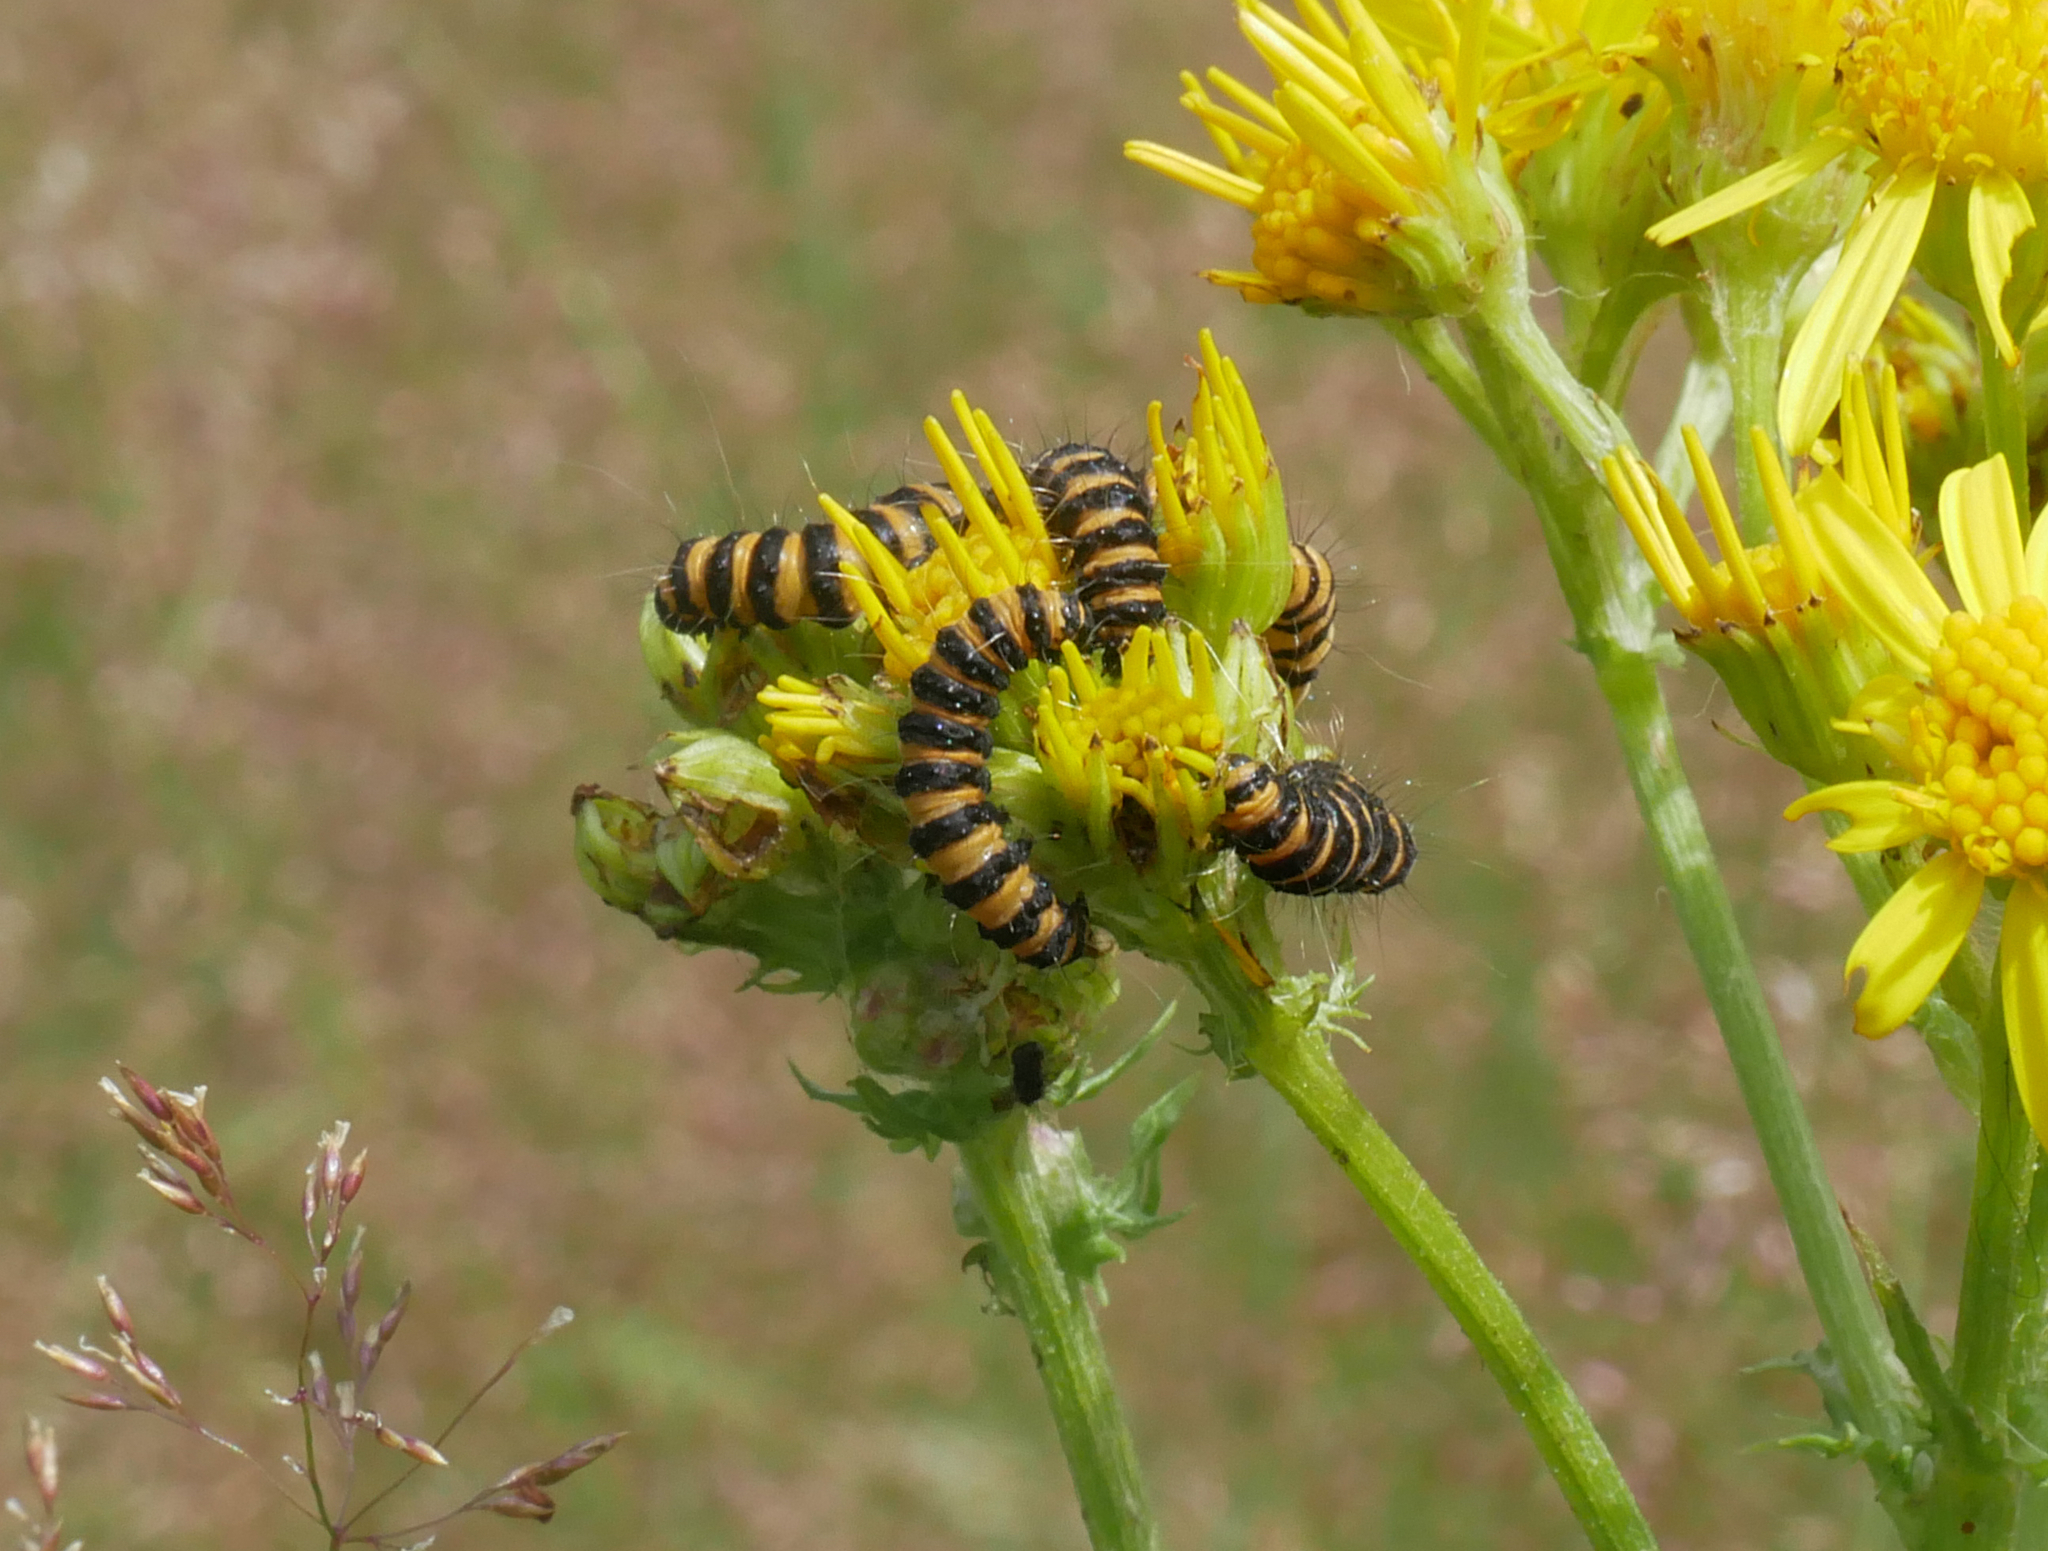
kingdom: Animalia
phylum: Arthropoda
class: Insecta
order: Lepidoptera
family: Erebidae
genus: Tyria
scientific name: Tyria jacobaeae
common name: Cinnabar
